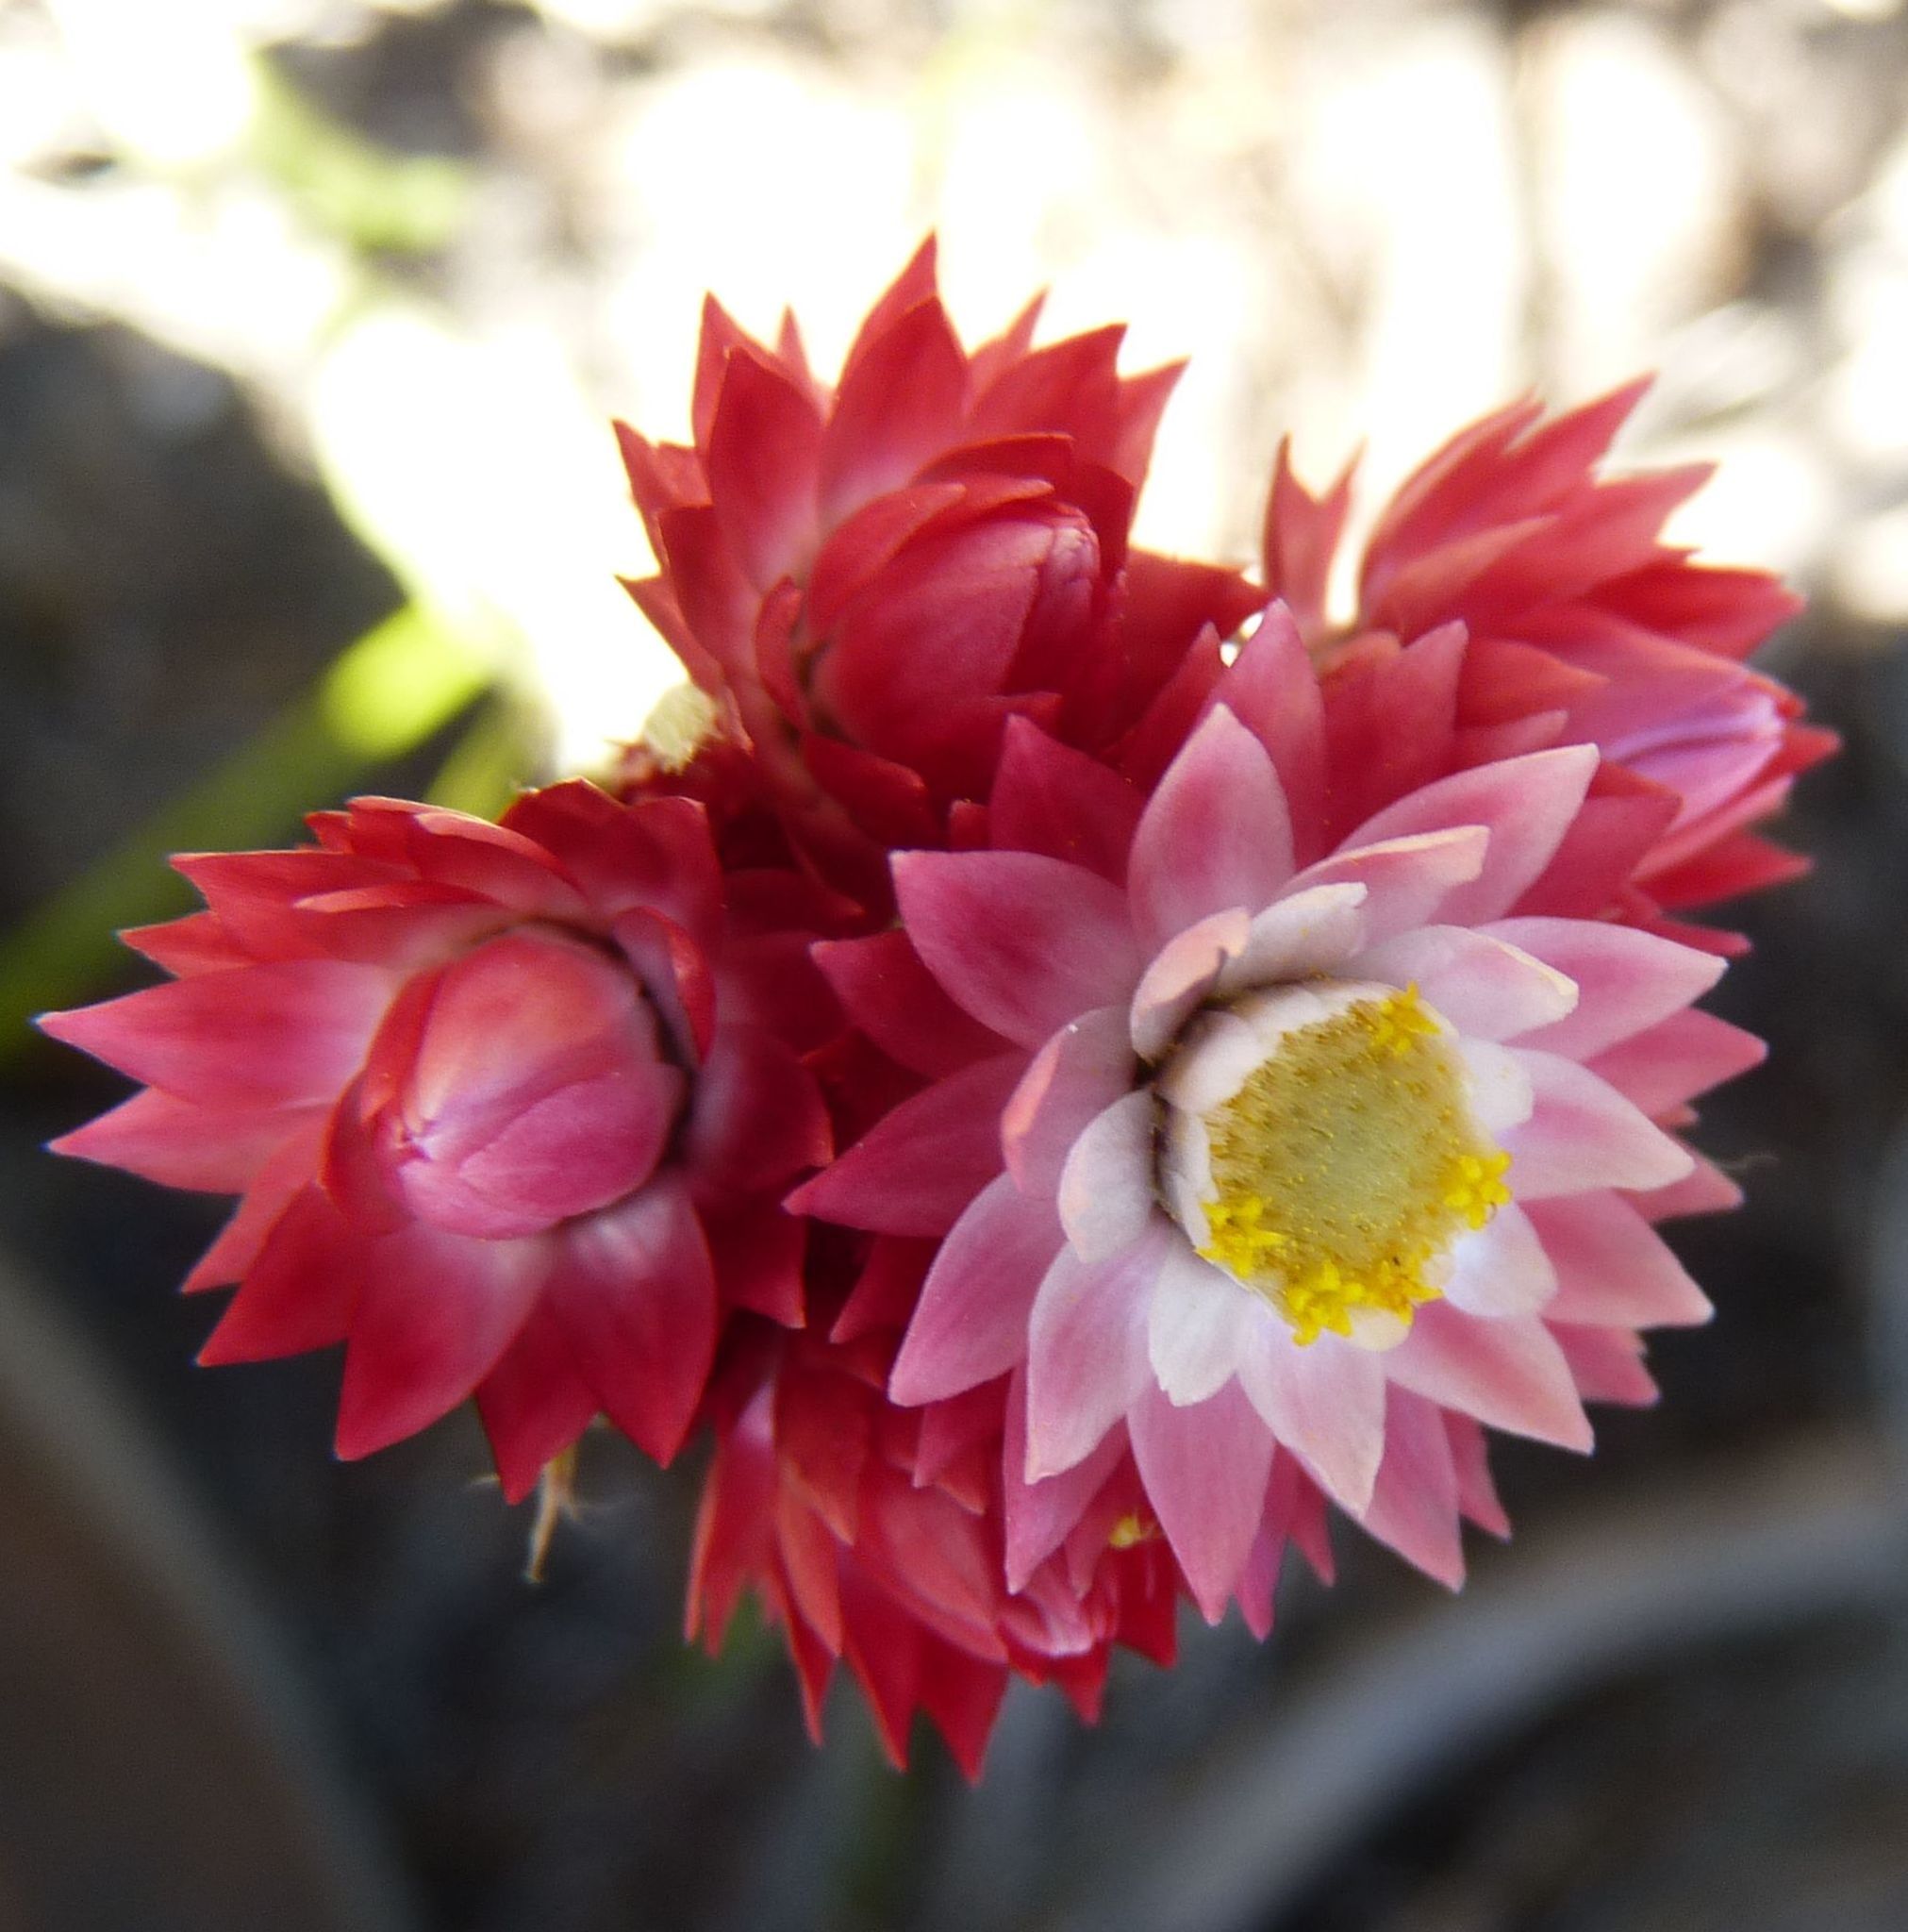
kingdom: Plantae
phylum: Tracheophyta
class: Magnoliopsida
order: Asterales
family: Asteraceae
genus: Achyranthemum
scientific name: Achyranthemum paniculatum
